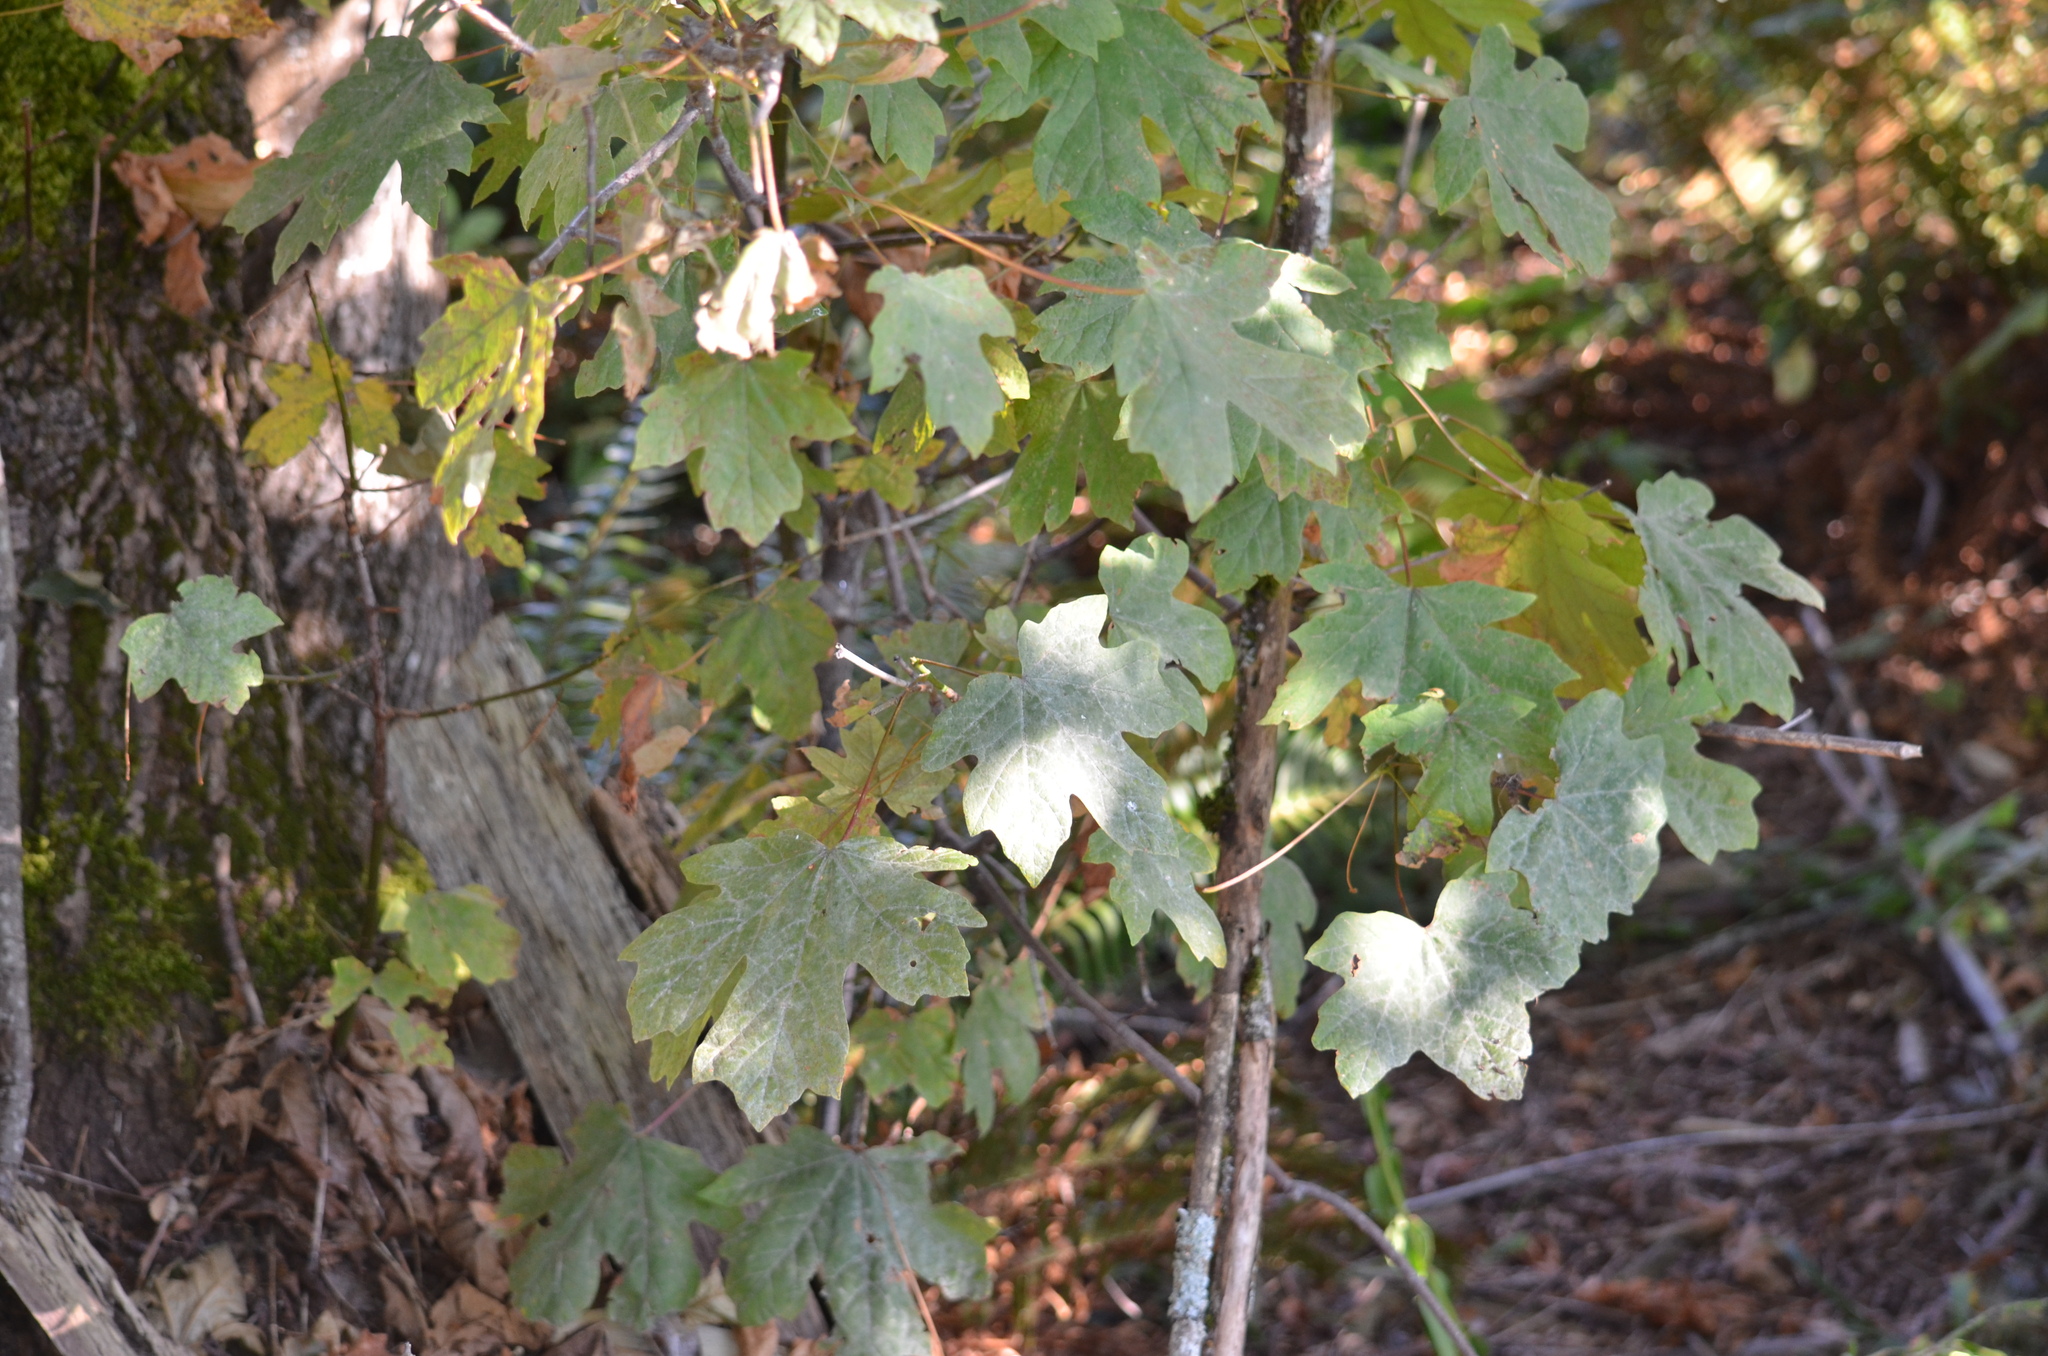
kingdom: Fungi
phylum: Ascomycota
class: Leotiomycetes
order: Helotiales
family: Erysiphaceae
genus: Sawadaea
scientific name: Sawadaea bicornis
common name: Maple mildew
